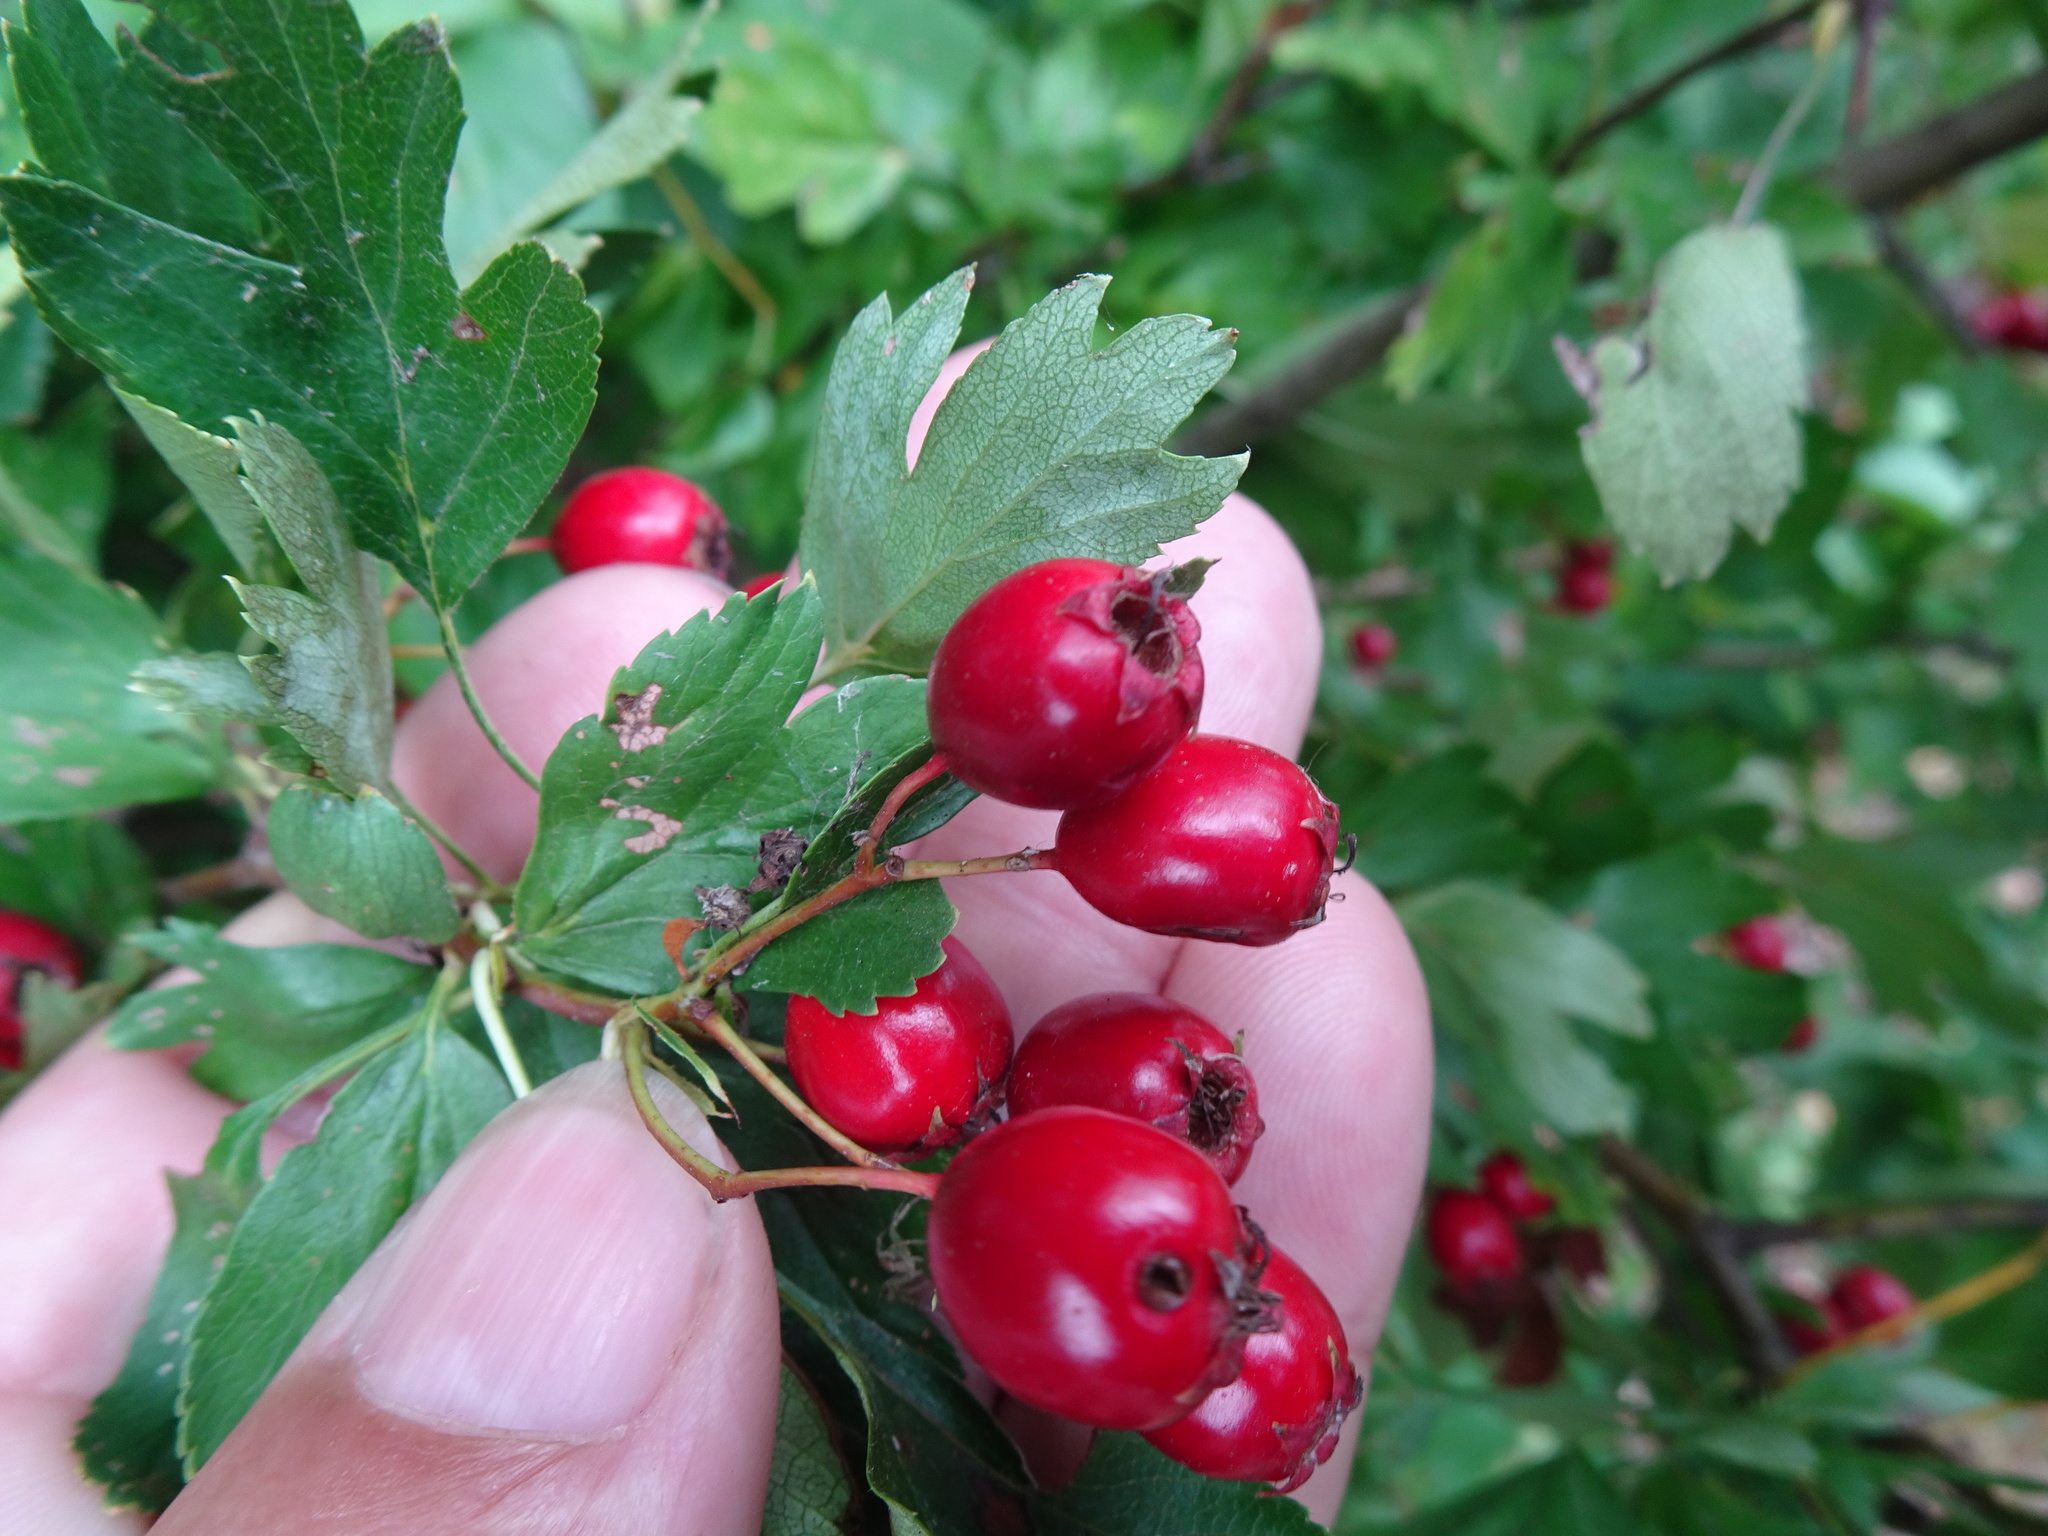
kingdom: Plantae
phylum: Tracheophyta
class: Magnoliopsida
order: Rosales
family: Rosaceae
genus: Crataegus
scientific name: Crataegus monogyna
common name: Hawthorn
